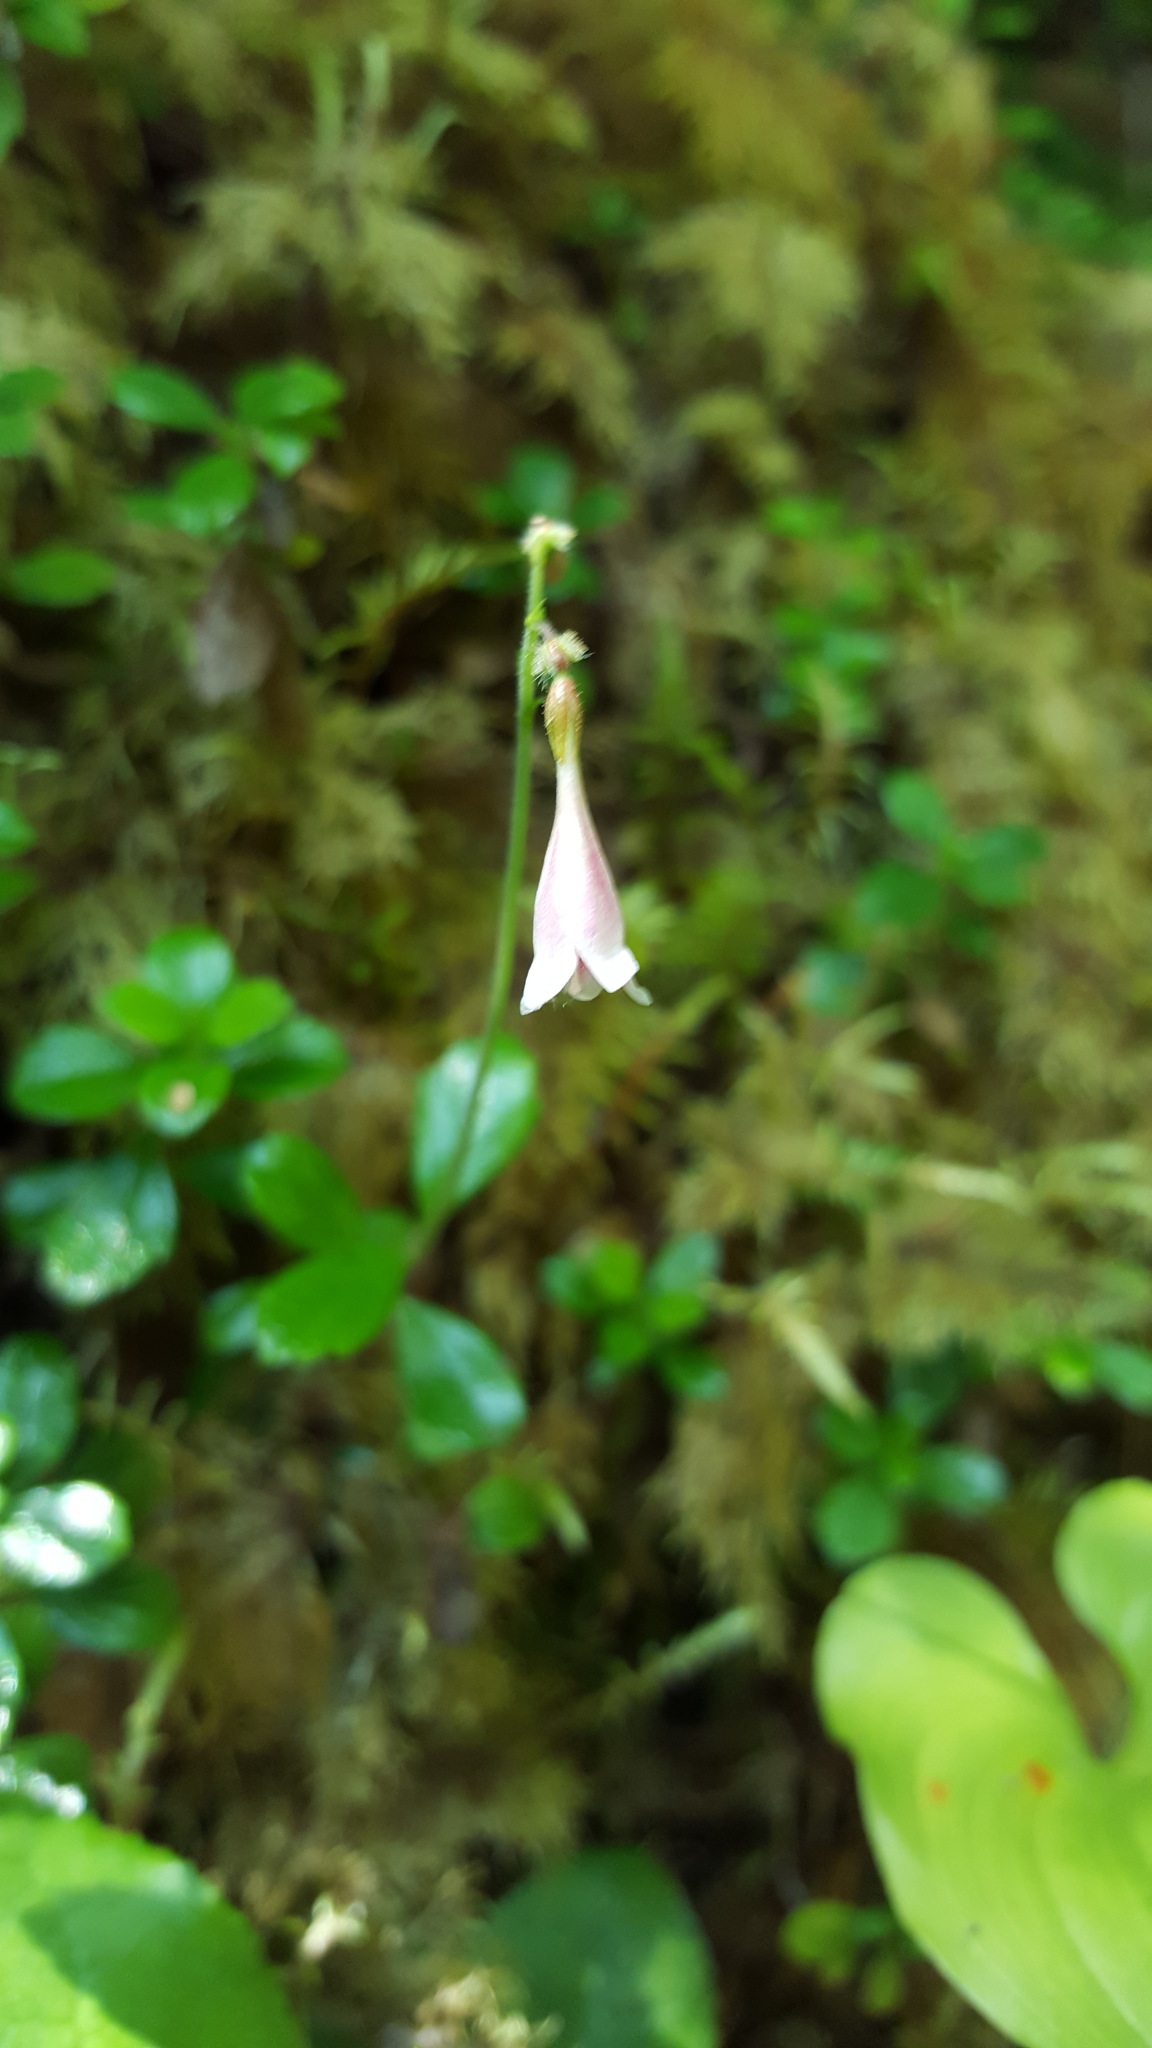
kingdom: Plantae
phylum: Tracheophyta
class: Magnoliopsida
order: Dipsacales
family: Caprifoliaceae
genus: Linnaea
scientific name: Linnaea borealis
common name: Twinflower
